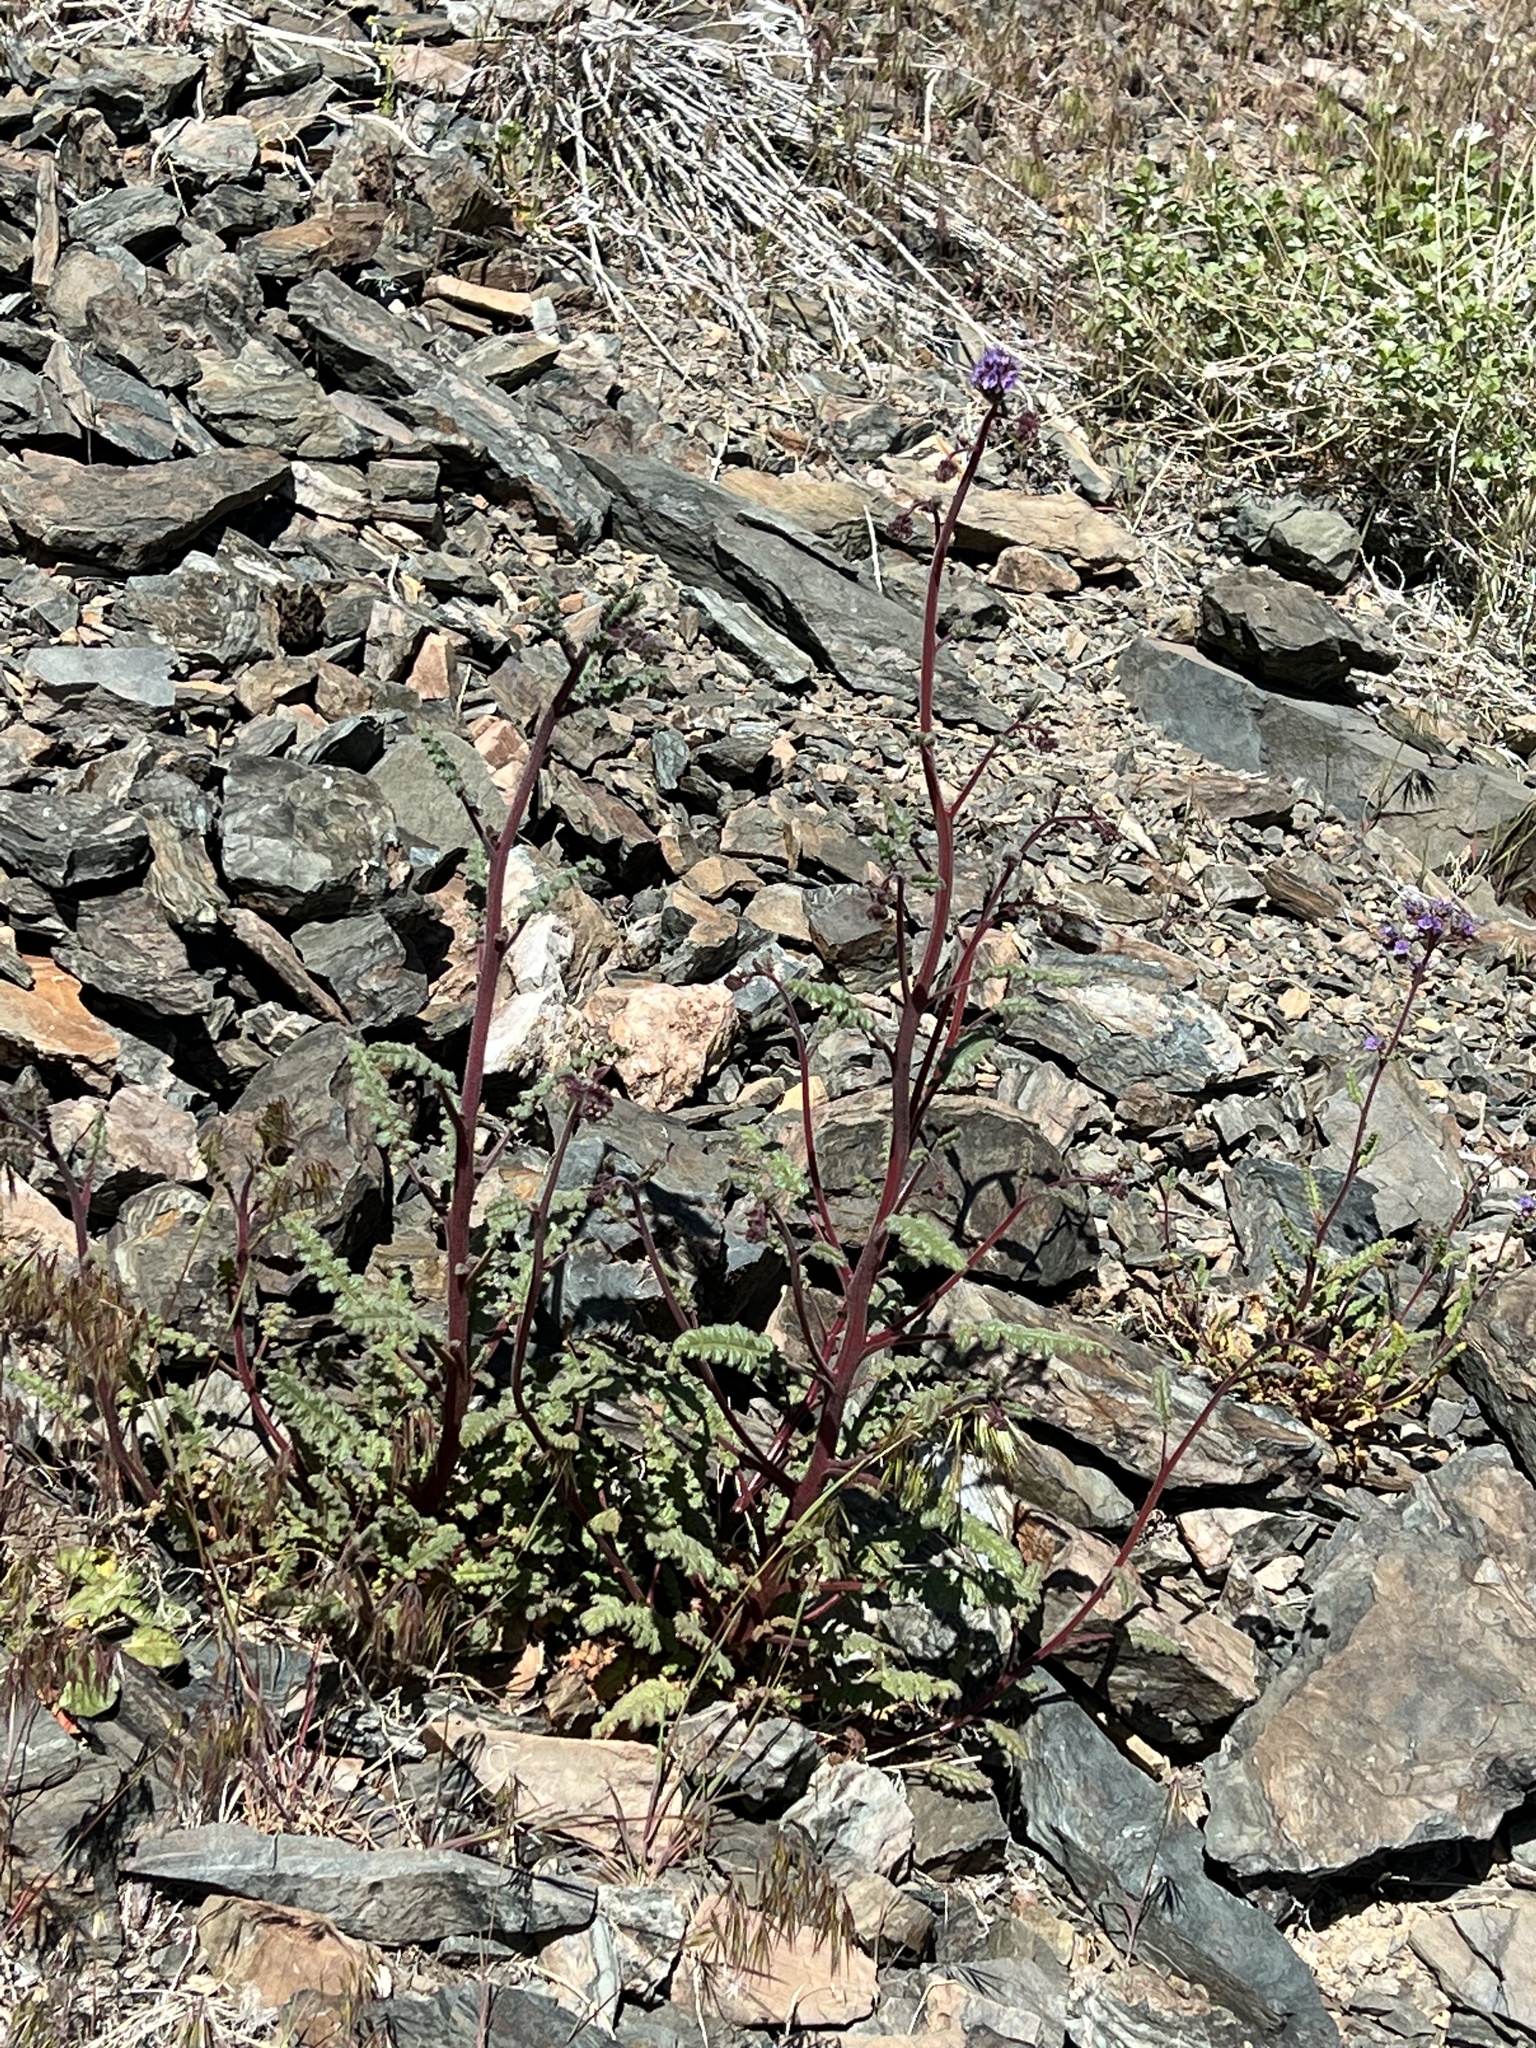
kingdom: Plantae
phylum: Tracheophyta
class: Magnoliopsida
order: Boraginales
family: Hydrophyllaceae
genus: Phacelia
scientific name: Phacelia crenulata
